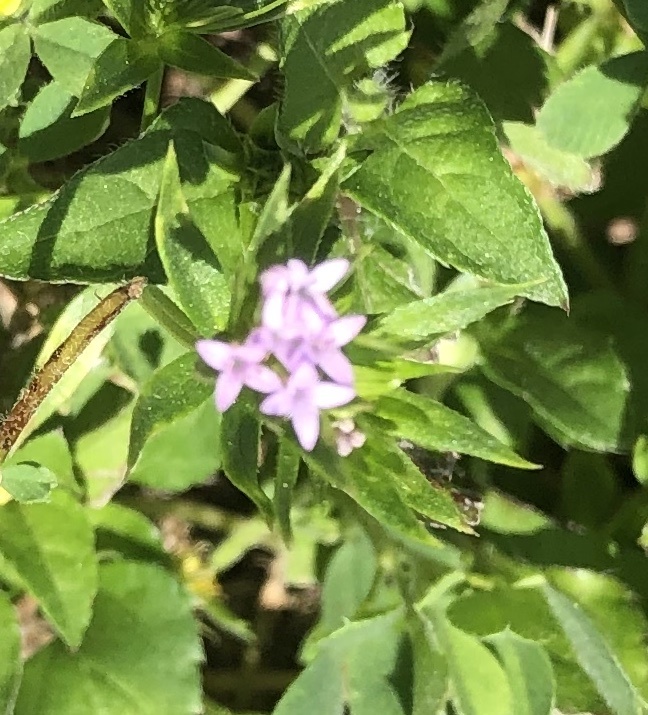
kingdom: Plantae
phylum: Tracheophyta
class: Magnoliopsida
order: Gentianales
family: Rubiaceae
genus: Sherardia
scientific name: Sherardia arvensis
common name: Field madder
